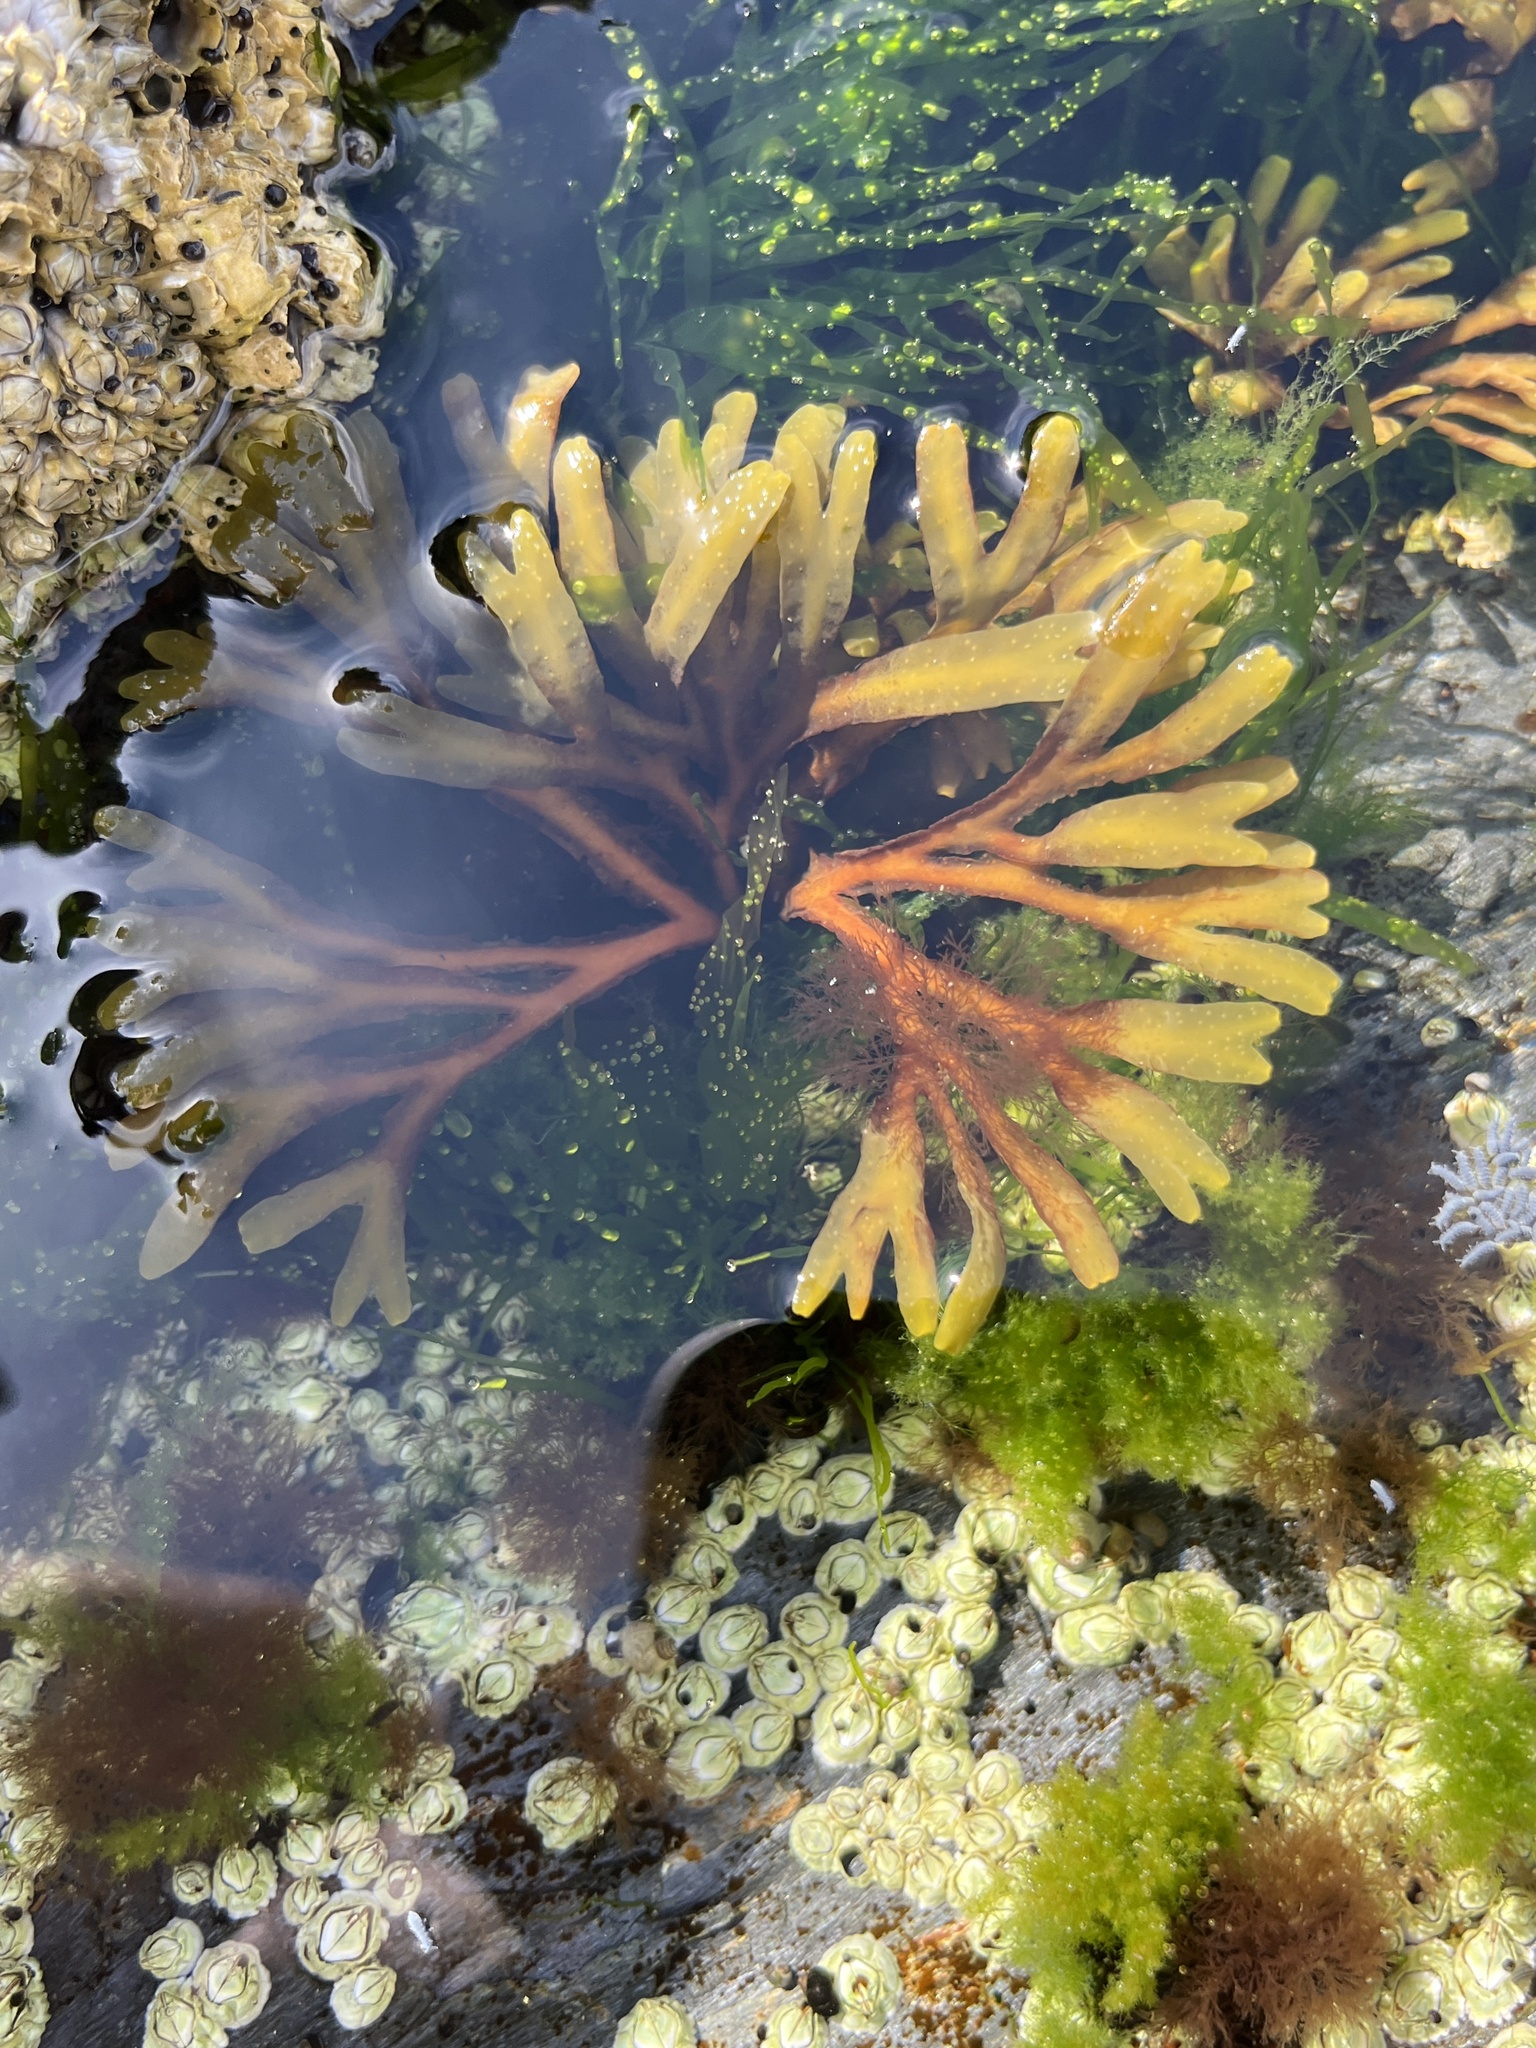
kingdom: Chromista
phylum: Ochrophyta
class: Phaeophyceae
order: Fucales
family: Fucaceae
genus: Fucus
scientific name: Fucus vesiculosus
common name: Bladder wrack
